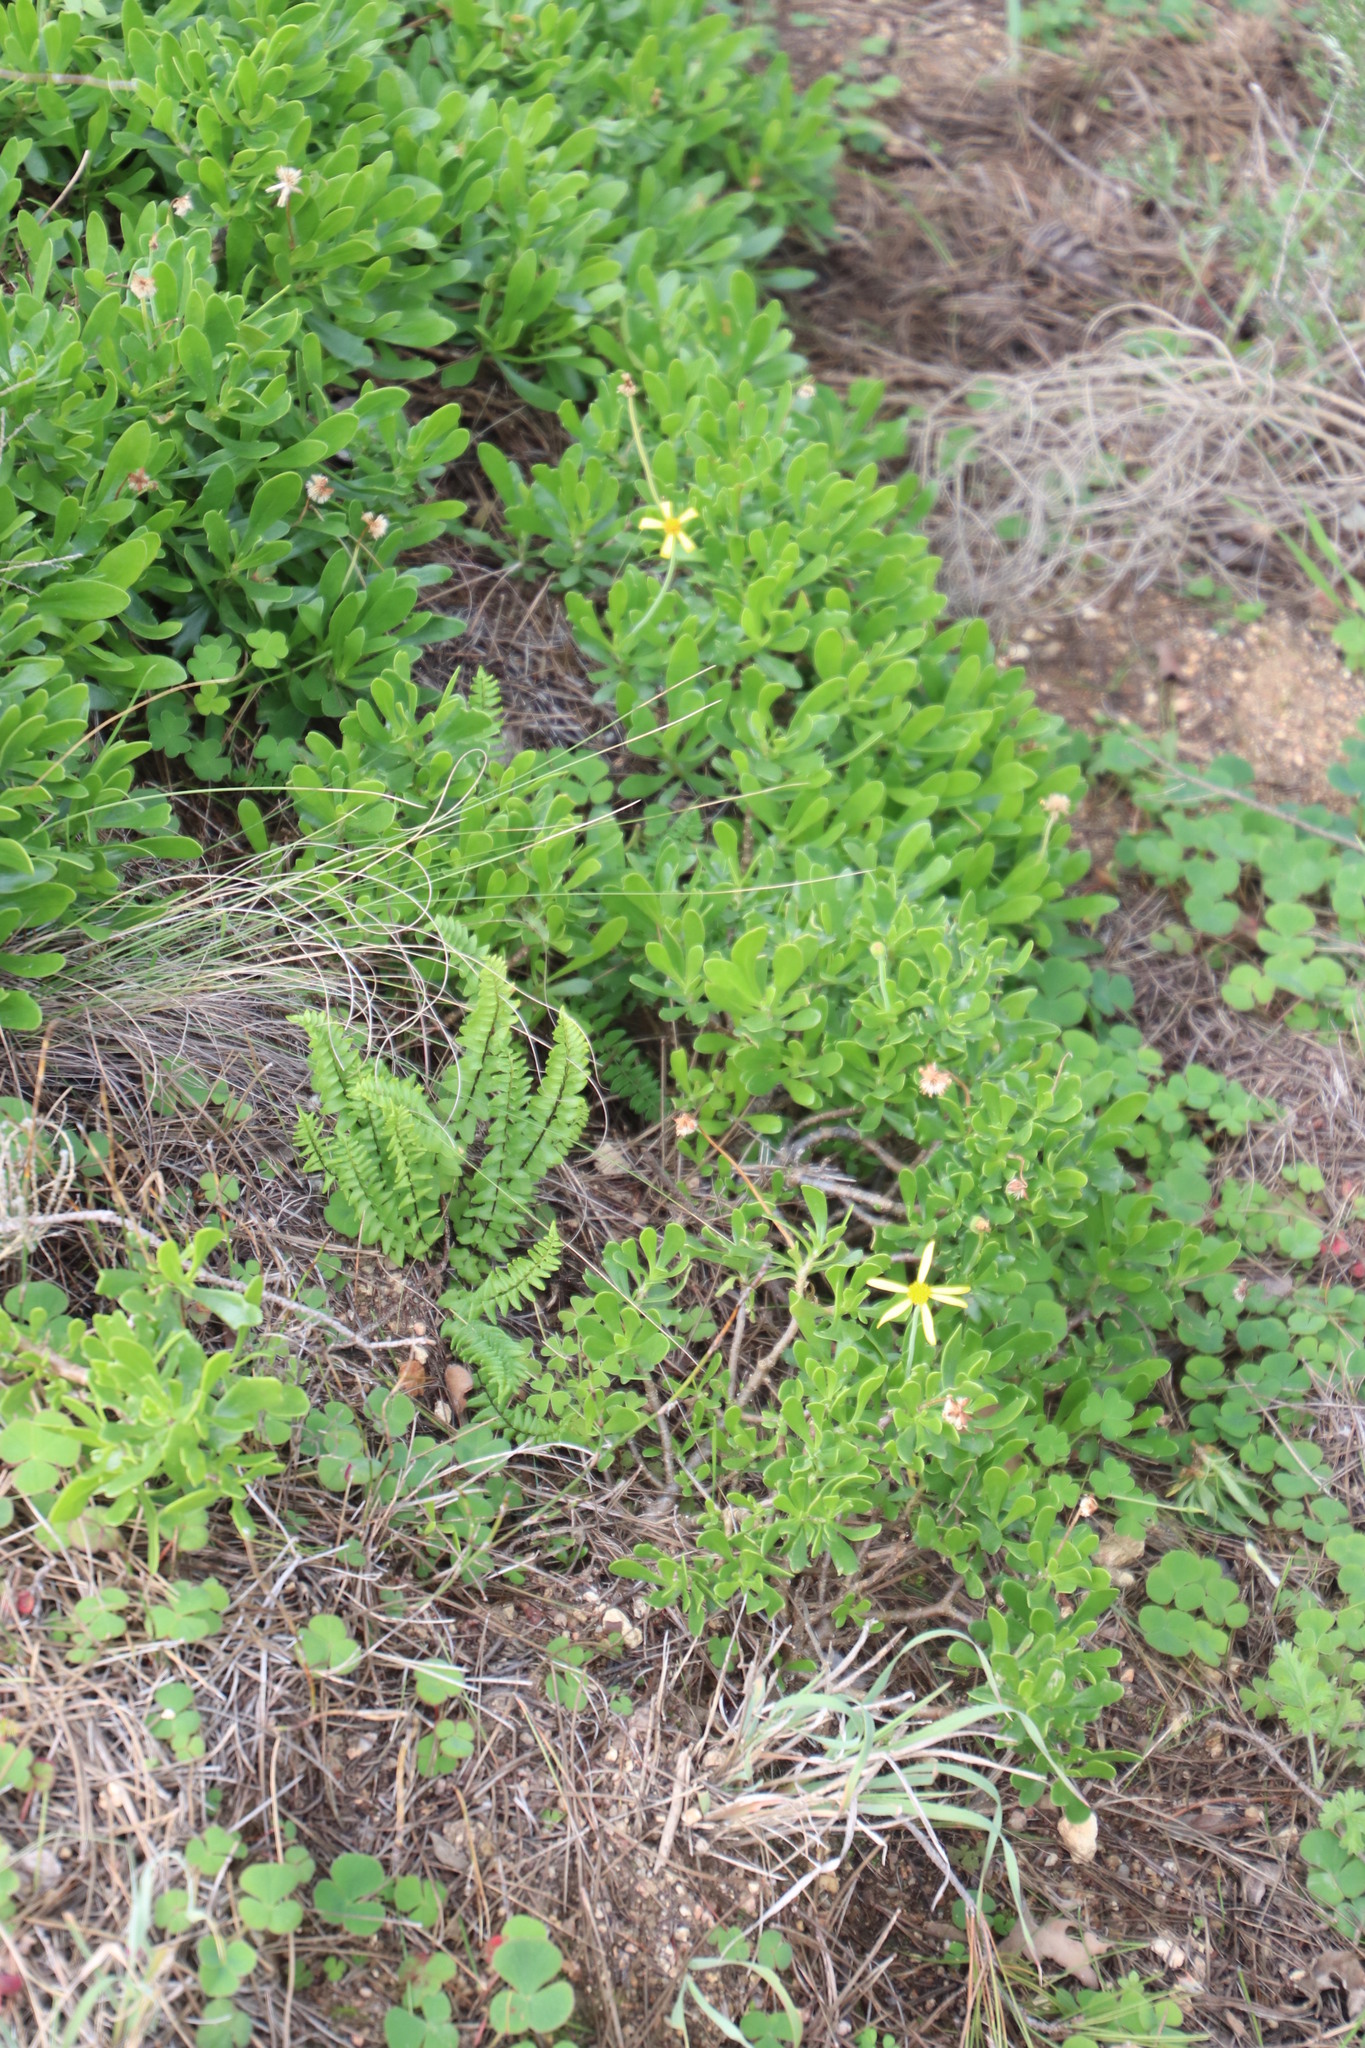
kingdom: Plantae
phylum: Tracheophyta
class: Magnoliopsida
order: Asterales
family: Asteraceae
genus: Othonna
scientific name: Othonna arborescens
